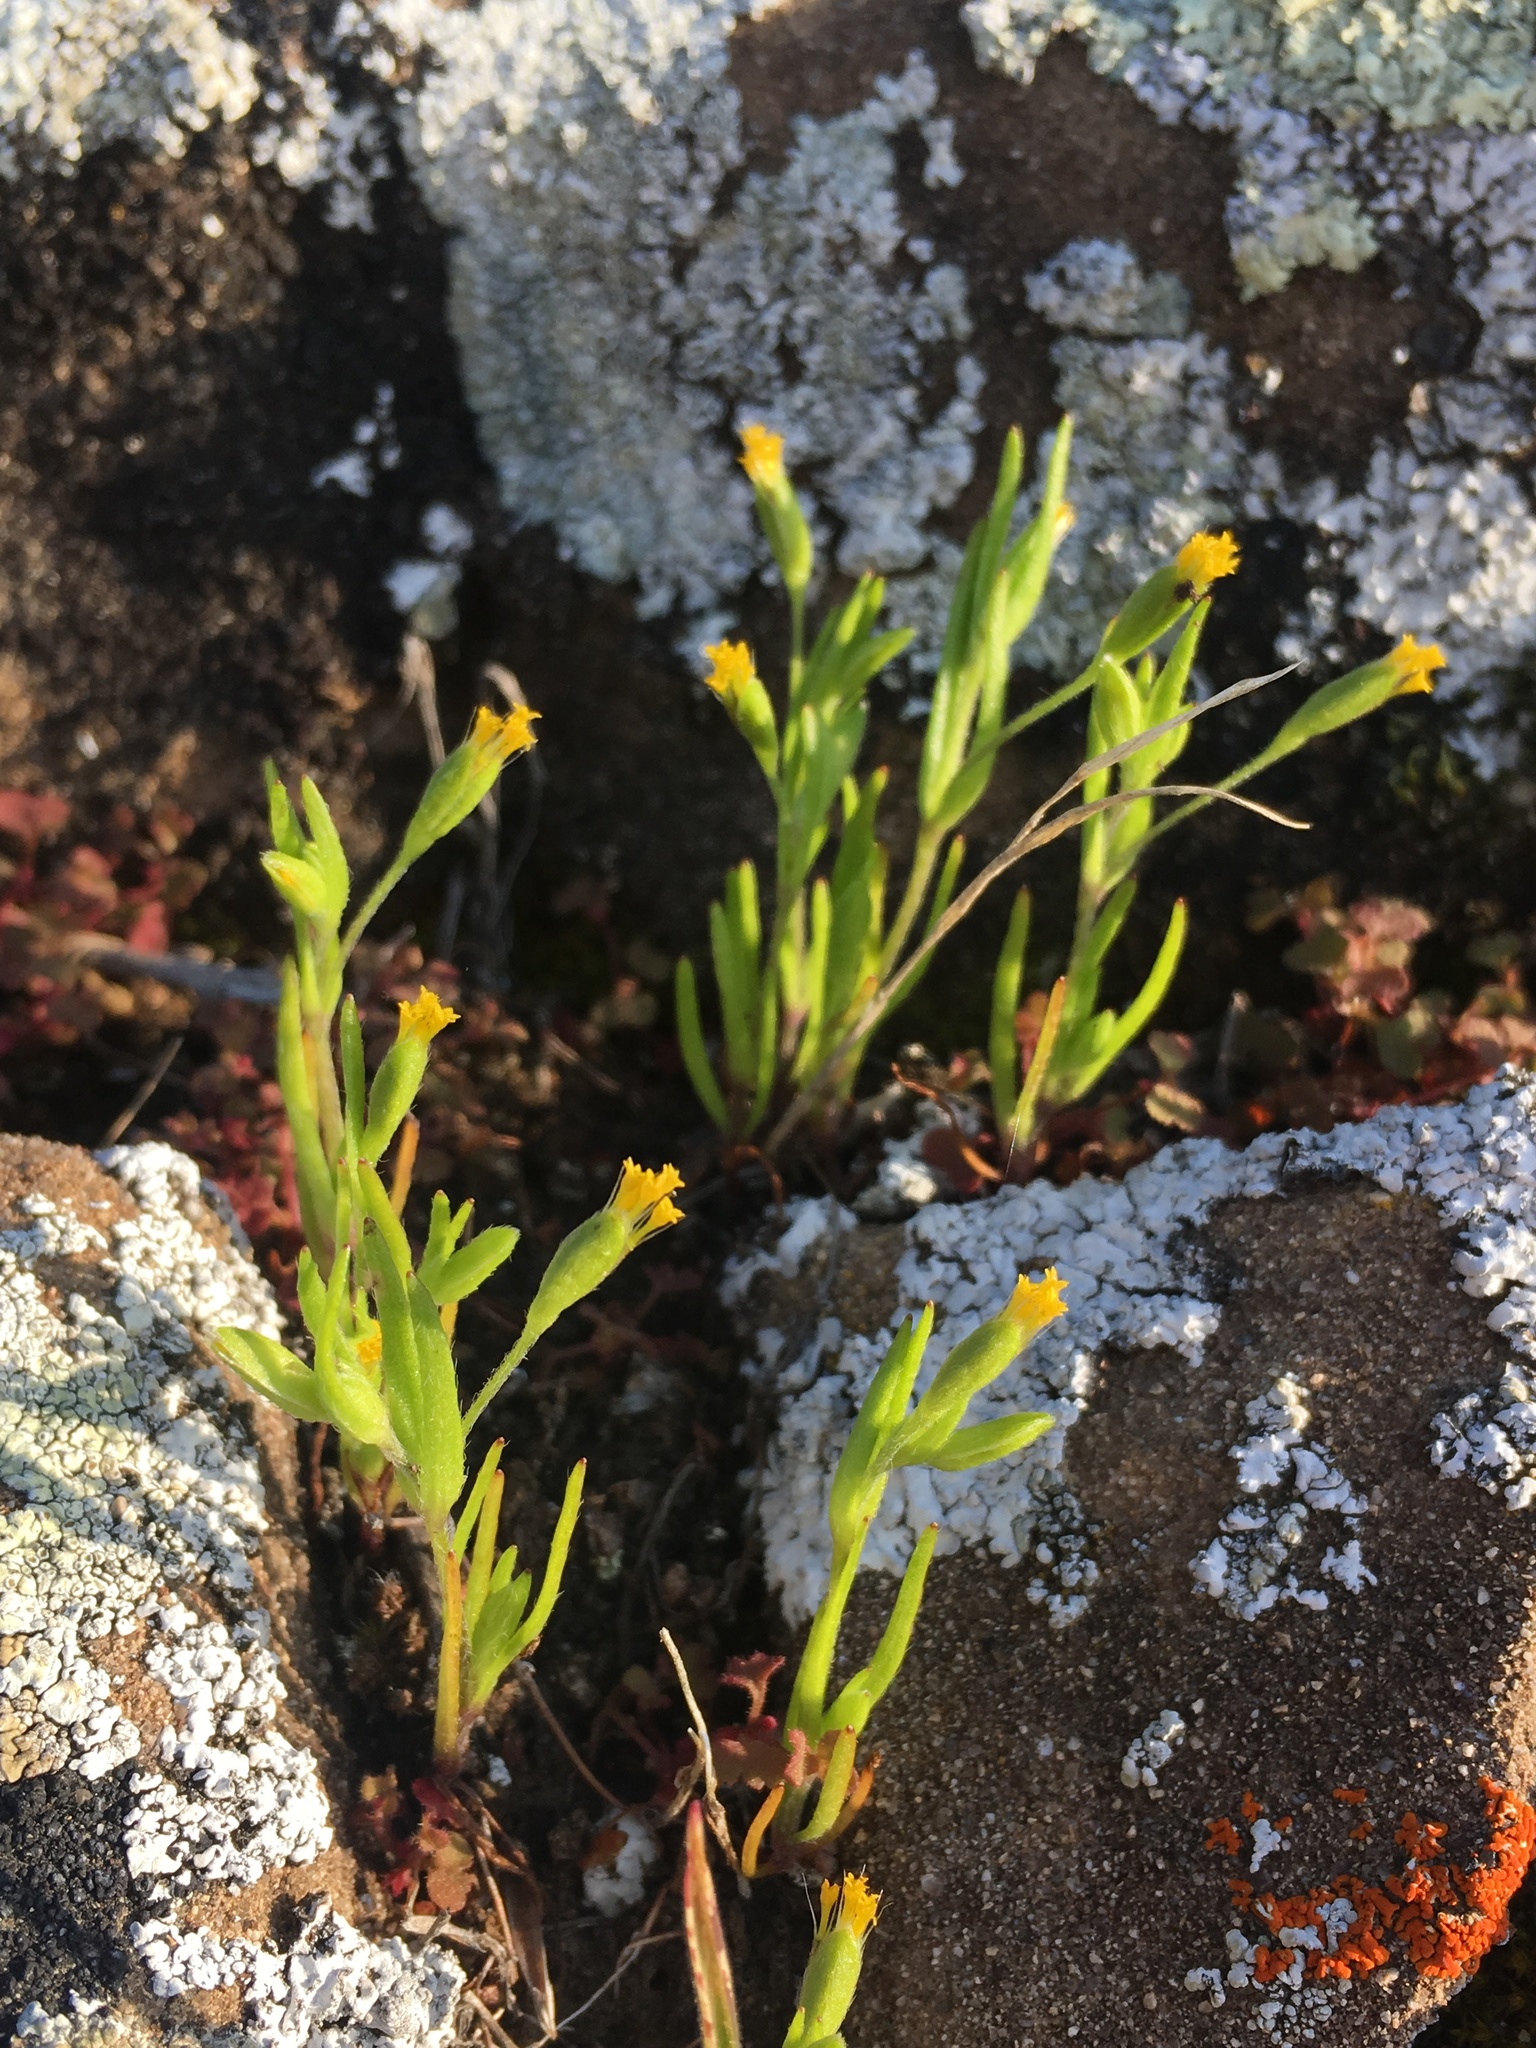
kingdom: Plantae
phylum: Tracheophyta
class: Magnoliopsida
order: Asterales
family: Asteraceae
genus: Lasthenia
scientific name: Lasthenia microglossa
